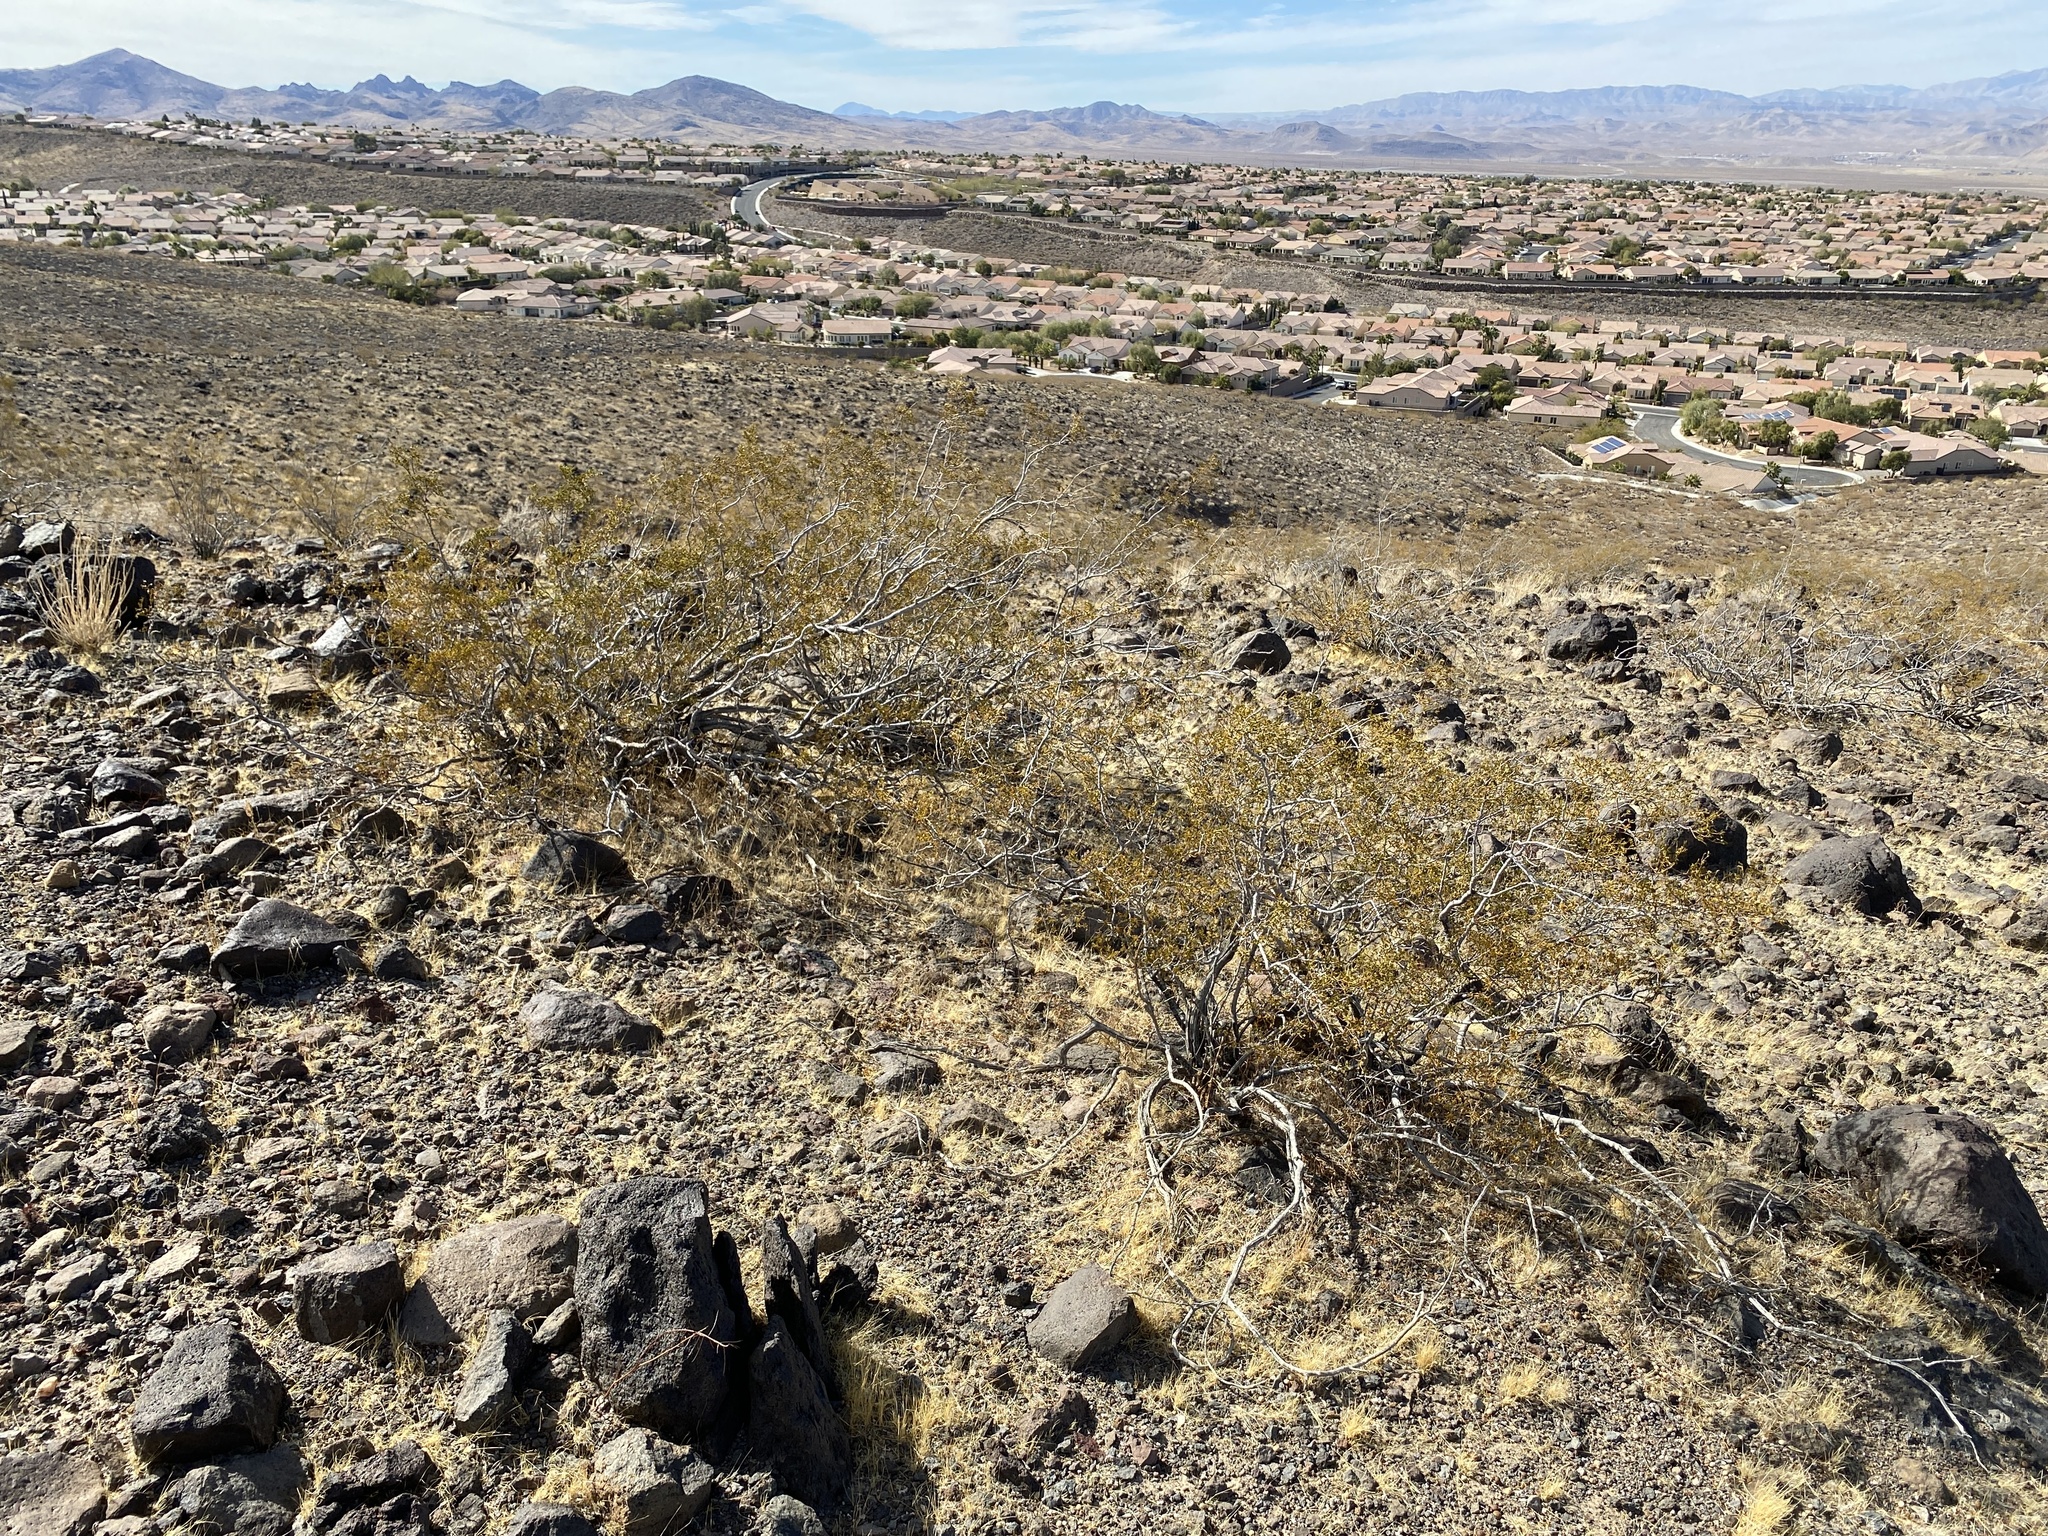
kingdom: Plantae
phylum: Tracheophyta
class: Magnoliopsida
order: Zygophyllales
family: Zygophyllaceae
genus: Larrea
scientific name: Larrea tridentata
